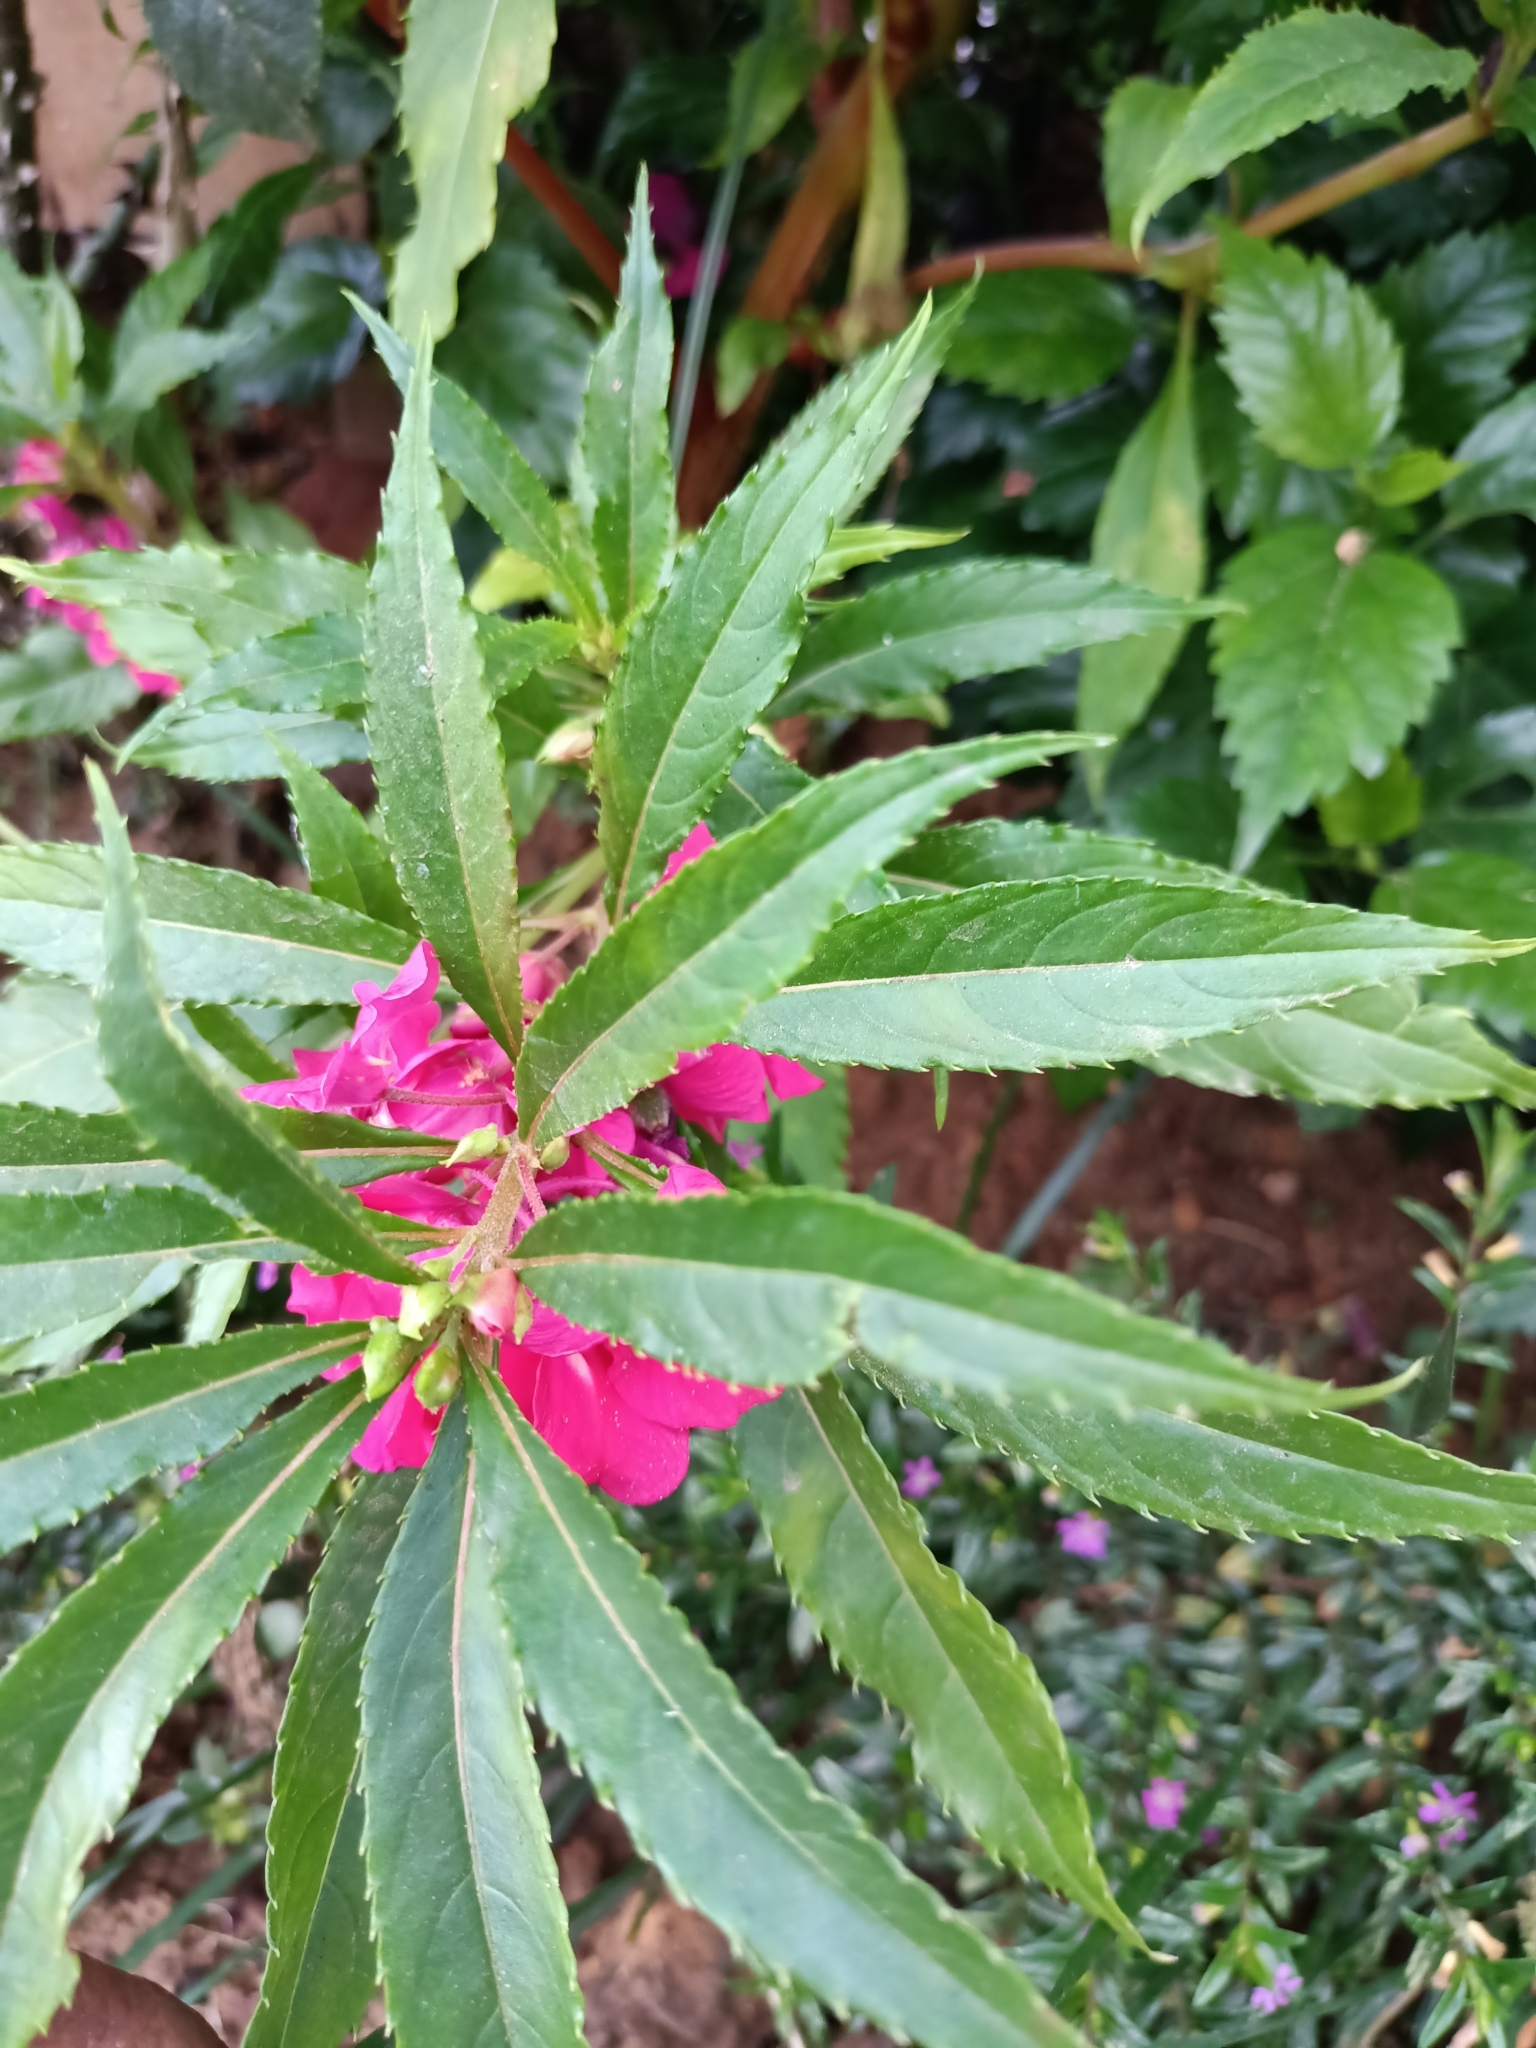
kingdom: Plantae
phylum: Tracheophyta
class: Magnoliopsida
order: Ericales
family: Balsaminaceae
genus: Impatiens
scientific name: Impatiens balsamina
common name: Balsam
